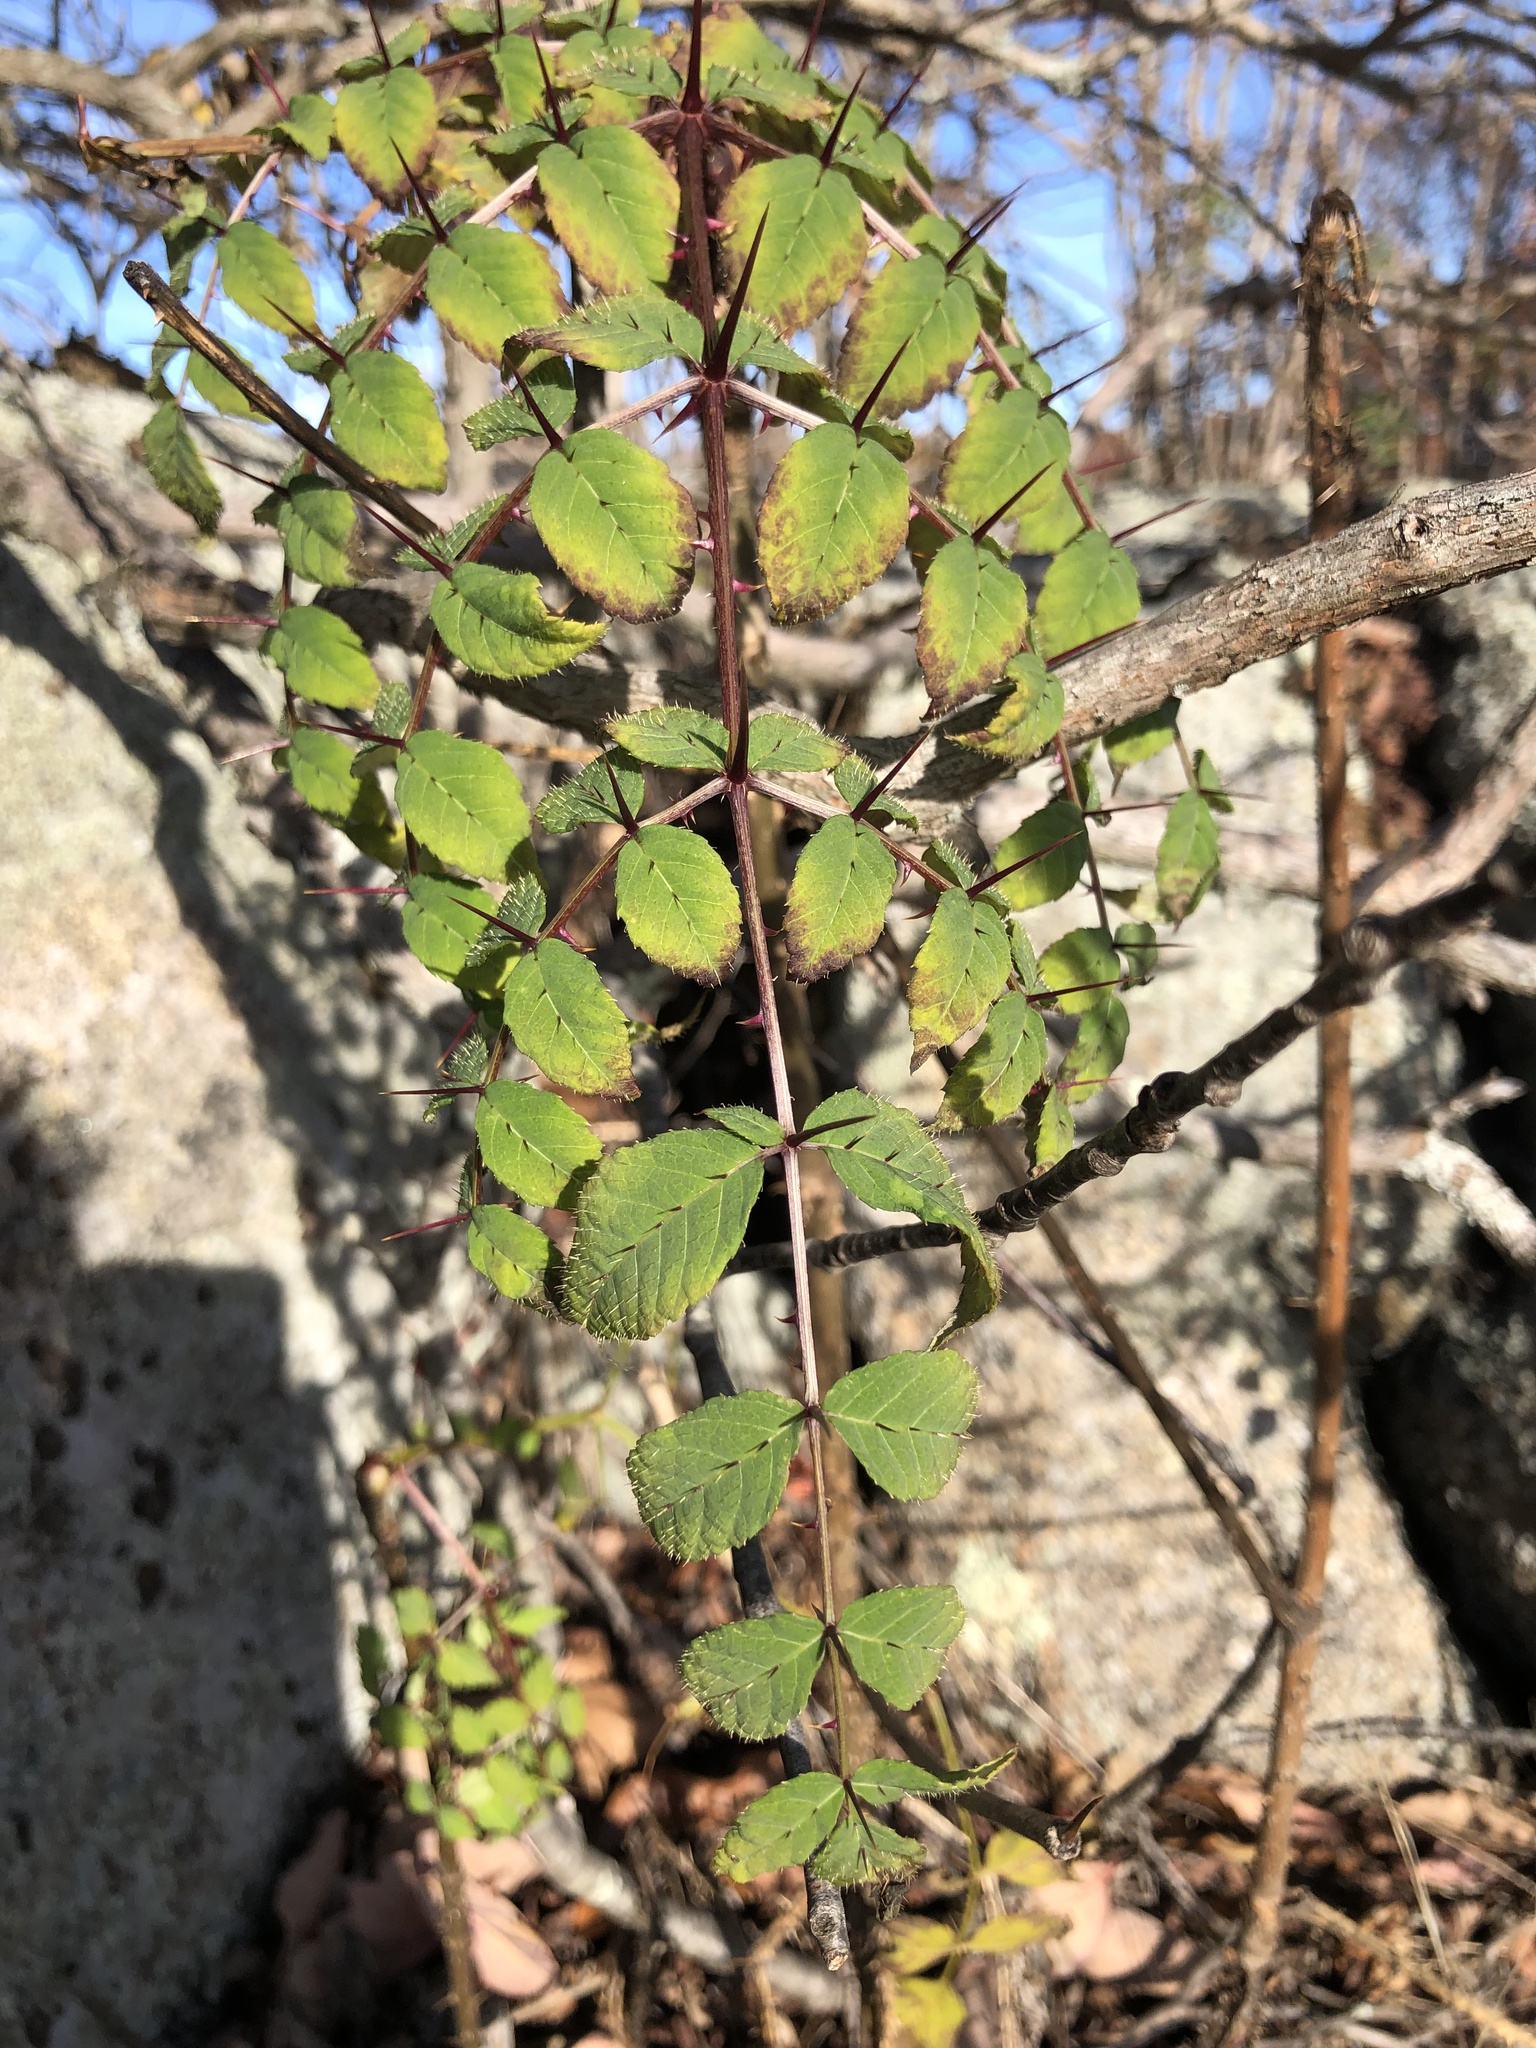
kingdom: Plantae
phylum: Tracheophyta
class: Magnoliopsida
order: Apiales
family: Araliaceae
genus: Aralia
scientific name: Aralia elata
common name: Japanese angelica-tree
